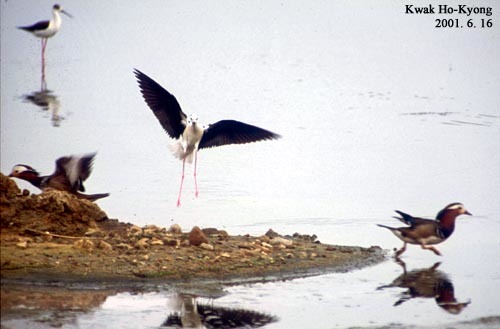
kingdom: Animalia
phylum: Chordata
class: Aves
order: Charadriiformes
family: Recurvirostridae
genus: Himantopus
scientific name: Himantopus himantopus
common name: Black-winged stilt
